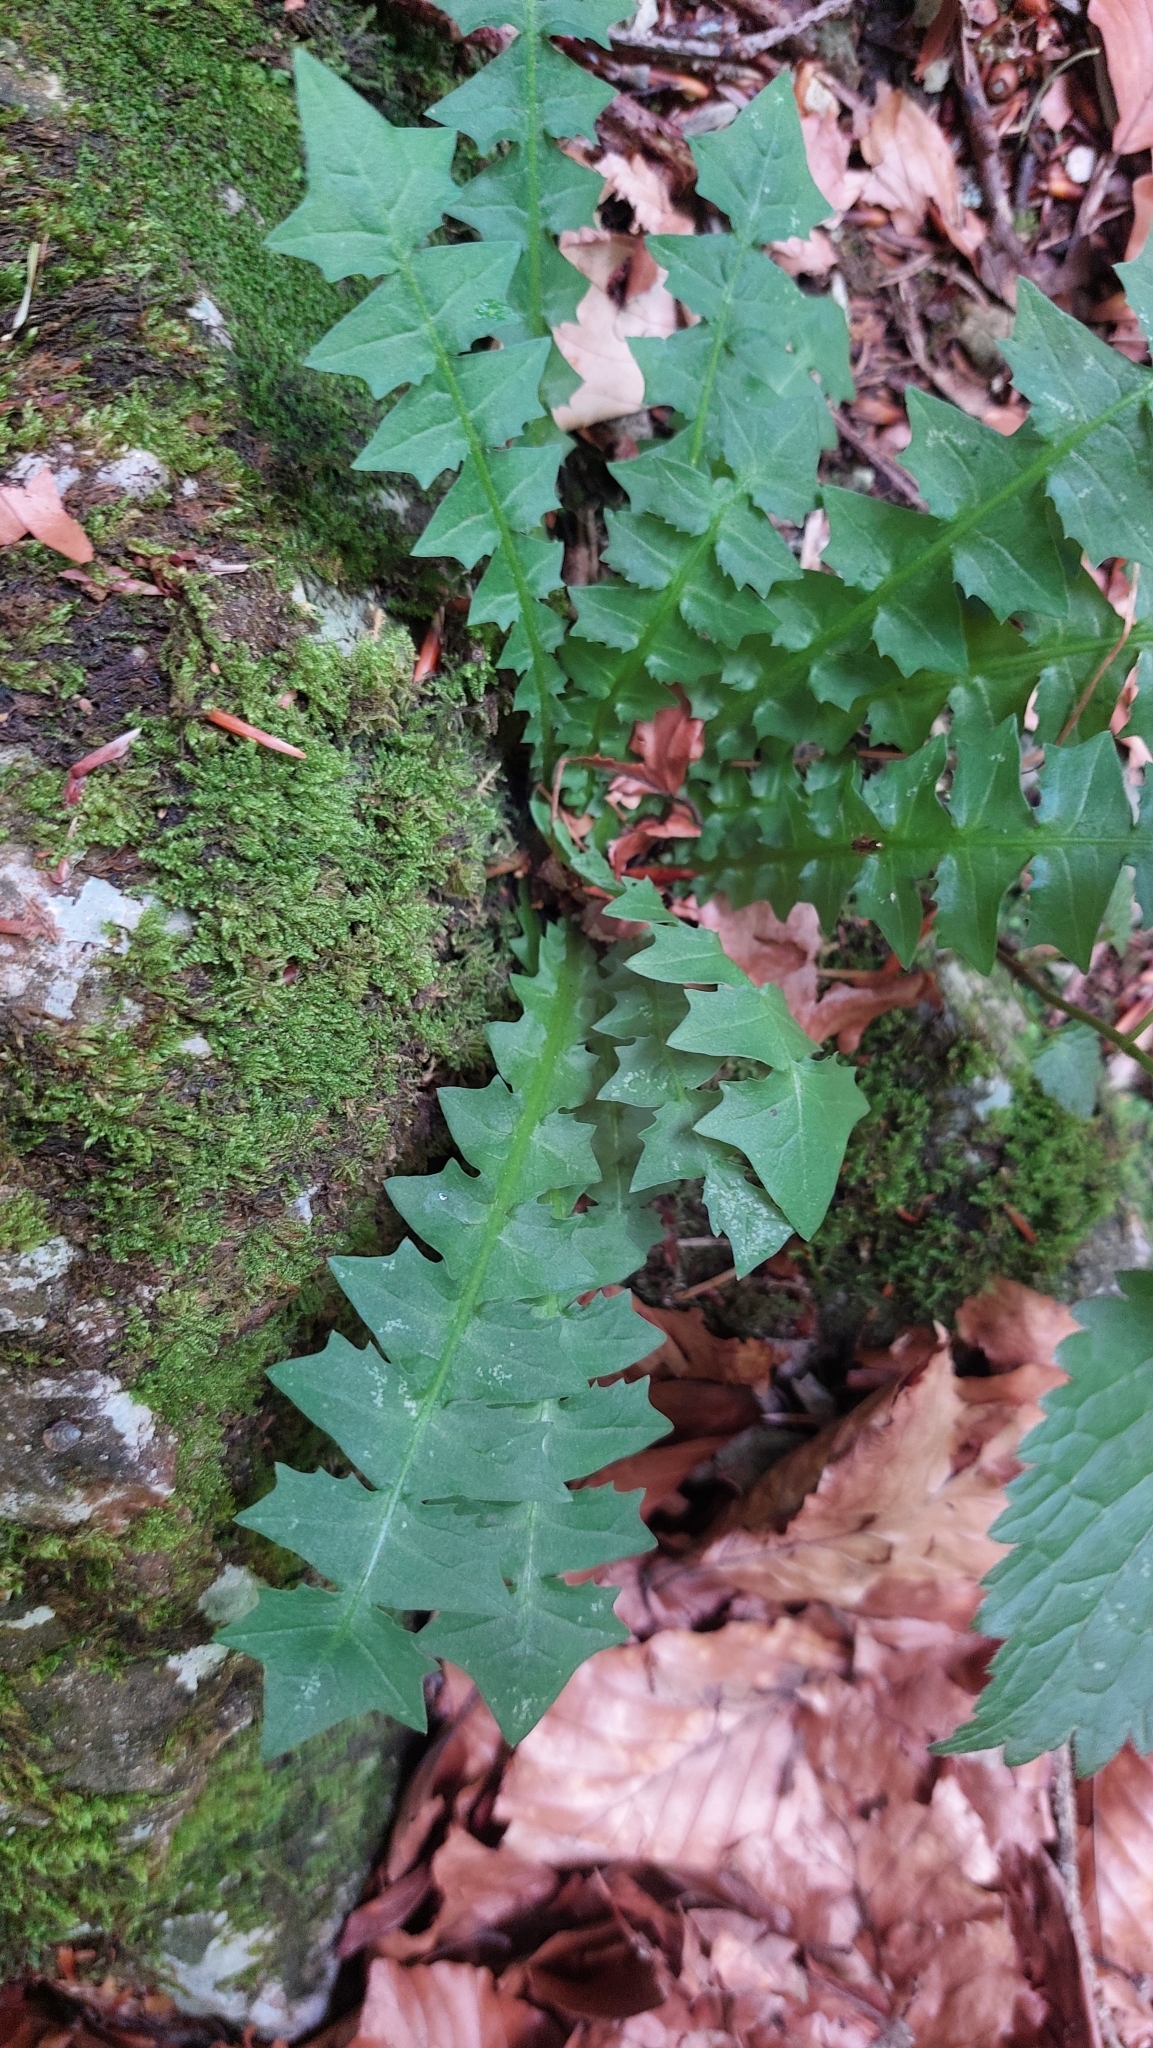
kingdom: Plantae
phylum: Tracheophyta
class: Magnoliopsida
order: Asterales
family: Asteraceae
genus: Aposeris
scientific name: Aposeris foetida
